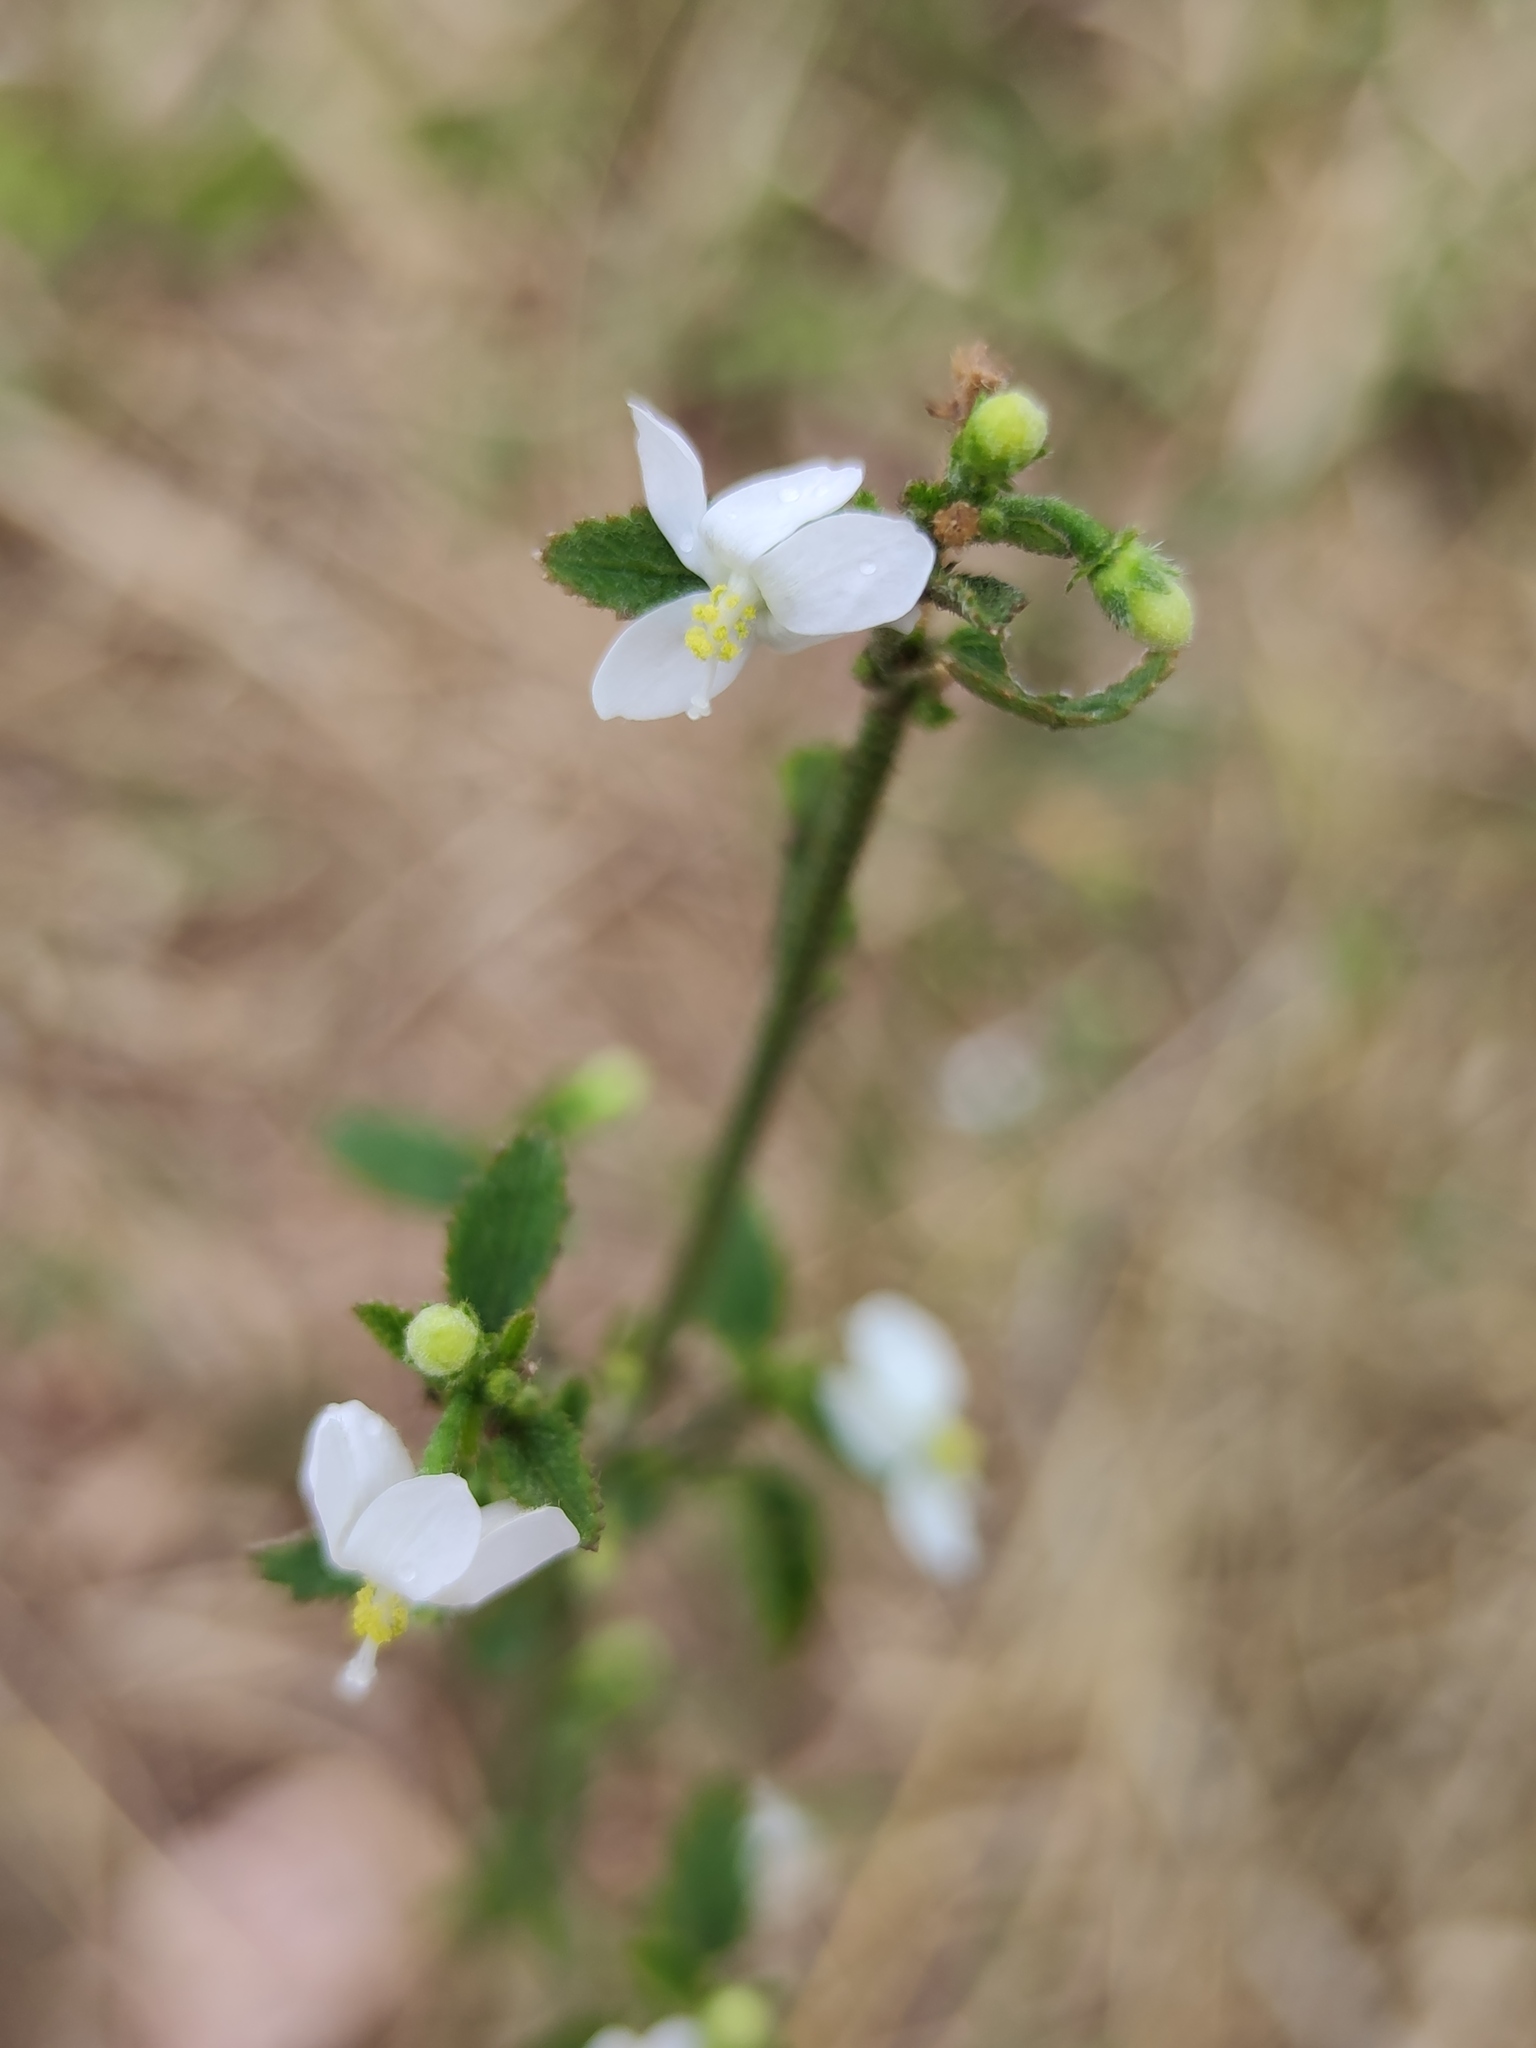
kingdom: Plantae
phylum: Tracheophyta
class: Magnoliopsida
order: Malvales
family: Malvaceae
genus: Hibiscus
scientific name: Hibiscus micranthus
